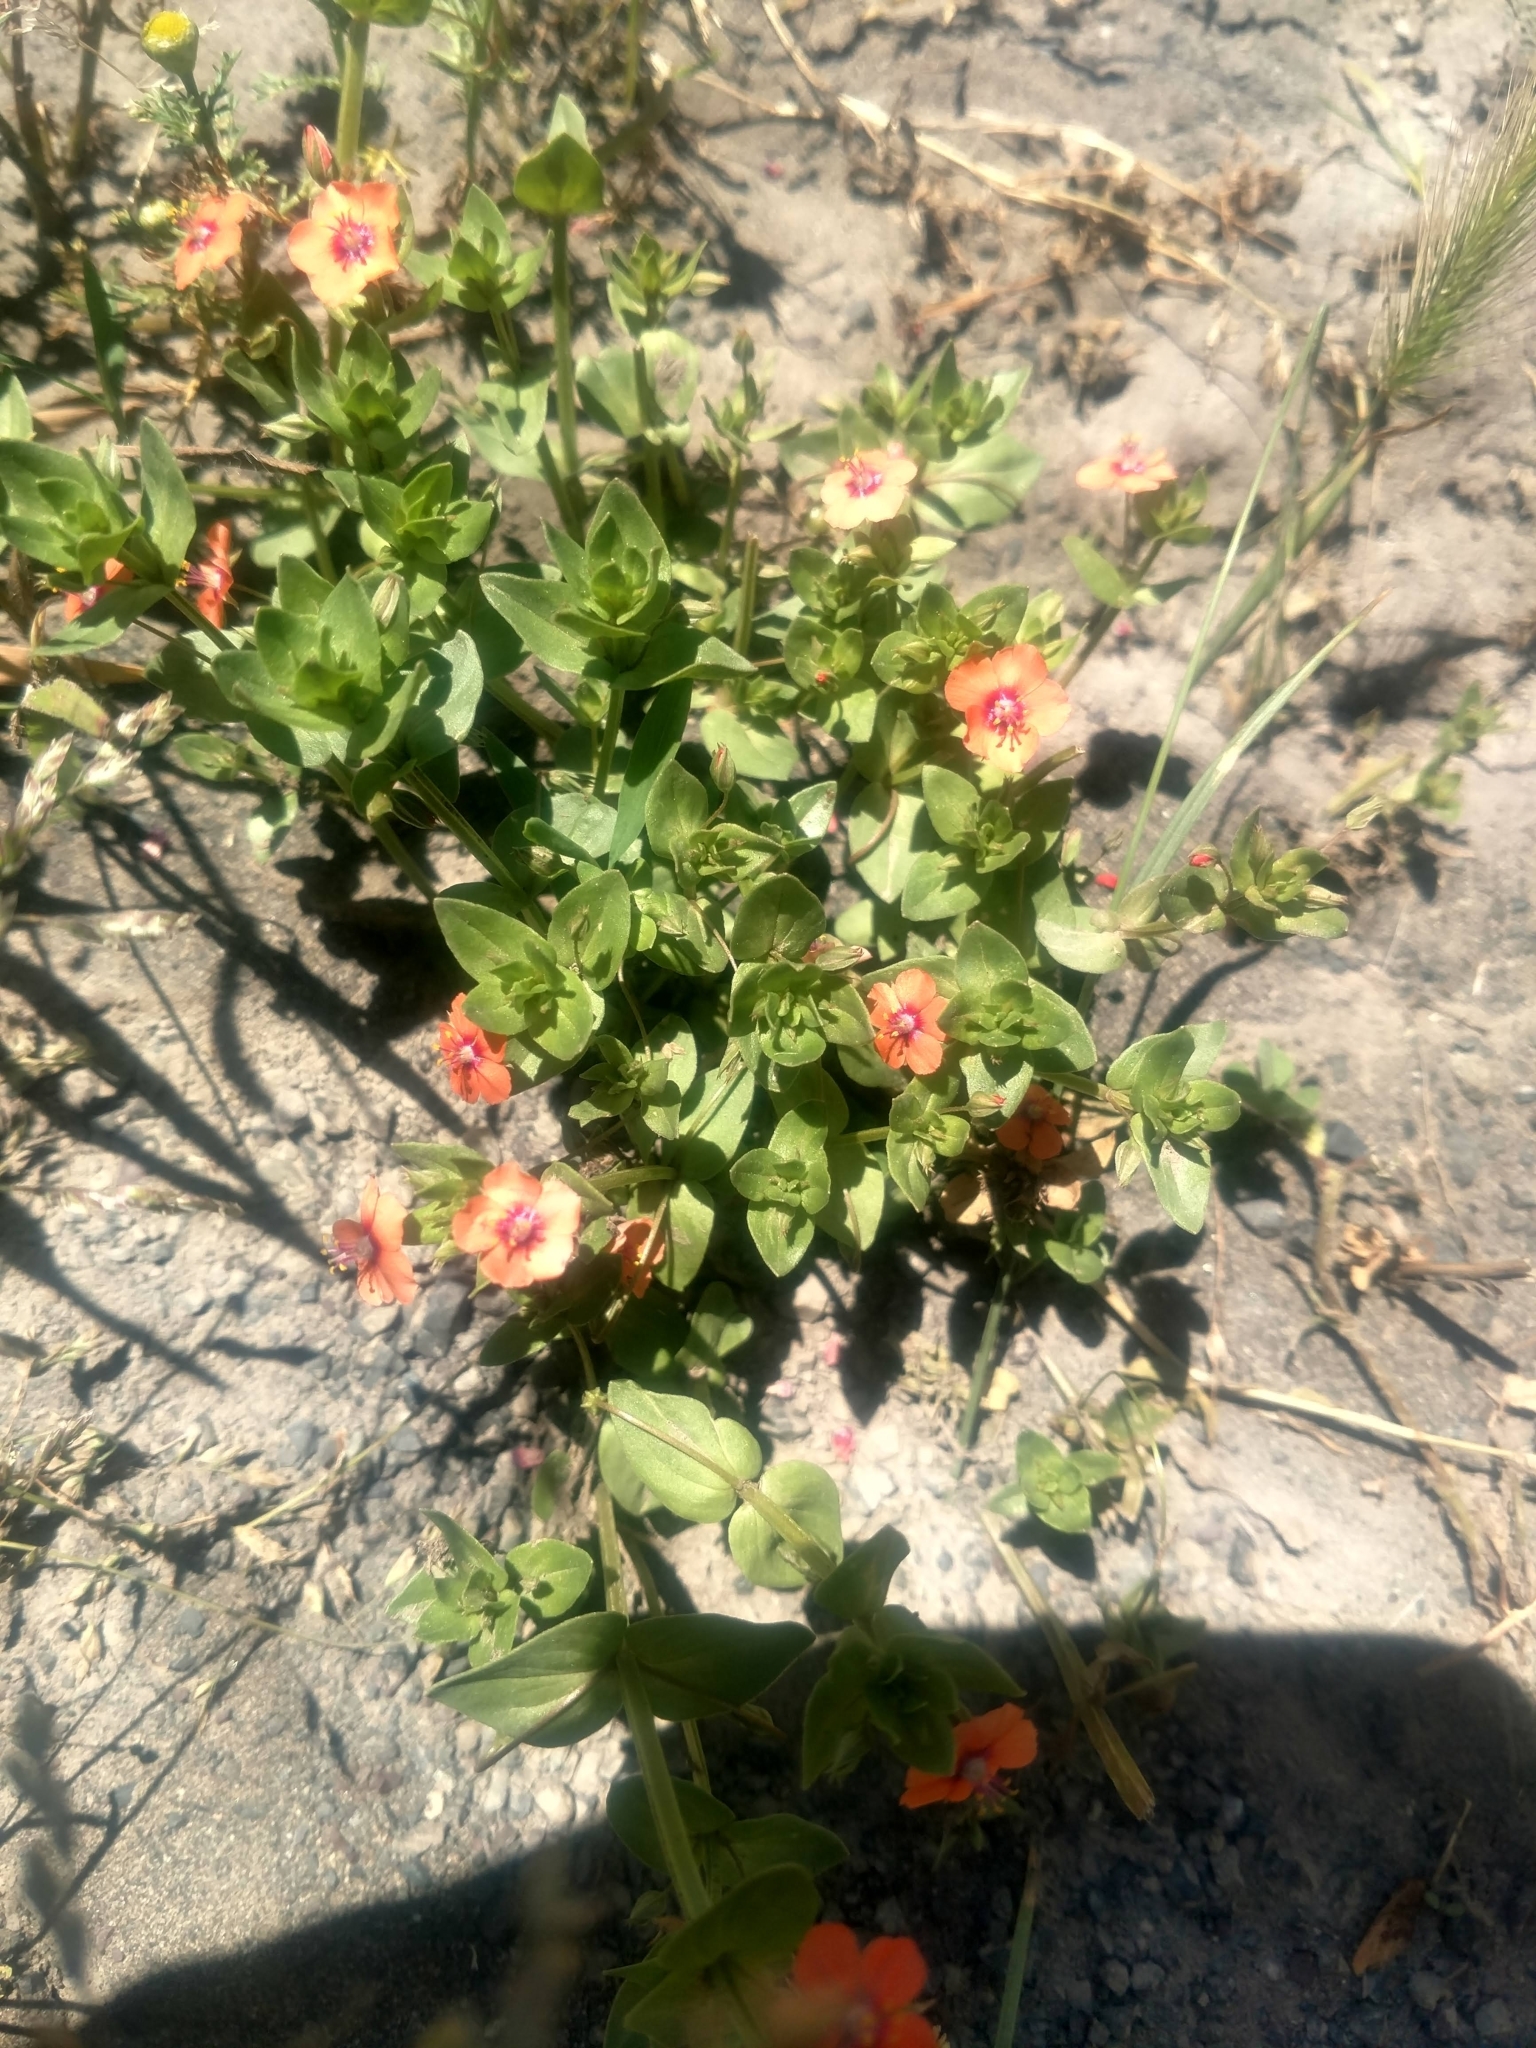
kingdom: Plantae
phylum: Tracheophyta
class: Magnoliopsida
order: Ericales
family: Primulaceae
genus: Lysimachia
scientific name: Lysimachia arvensis
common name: Scarlet pimpernel
